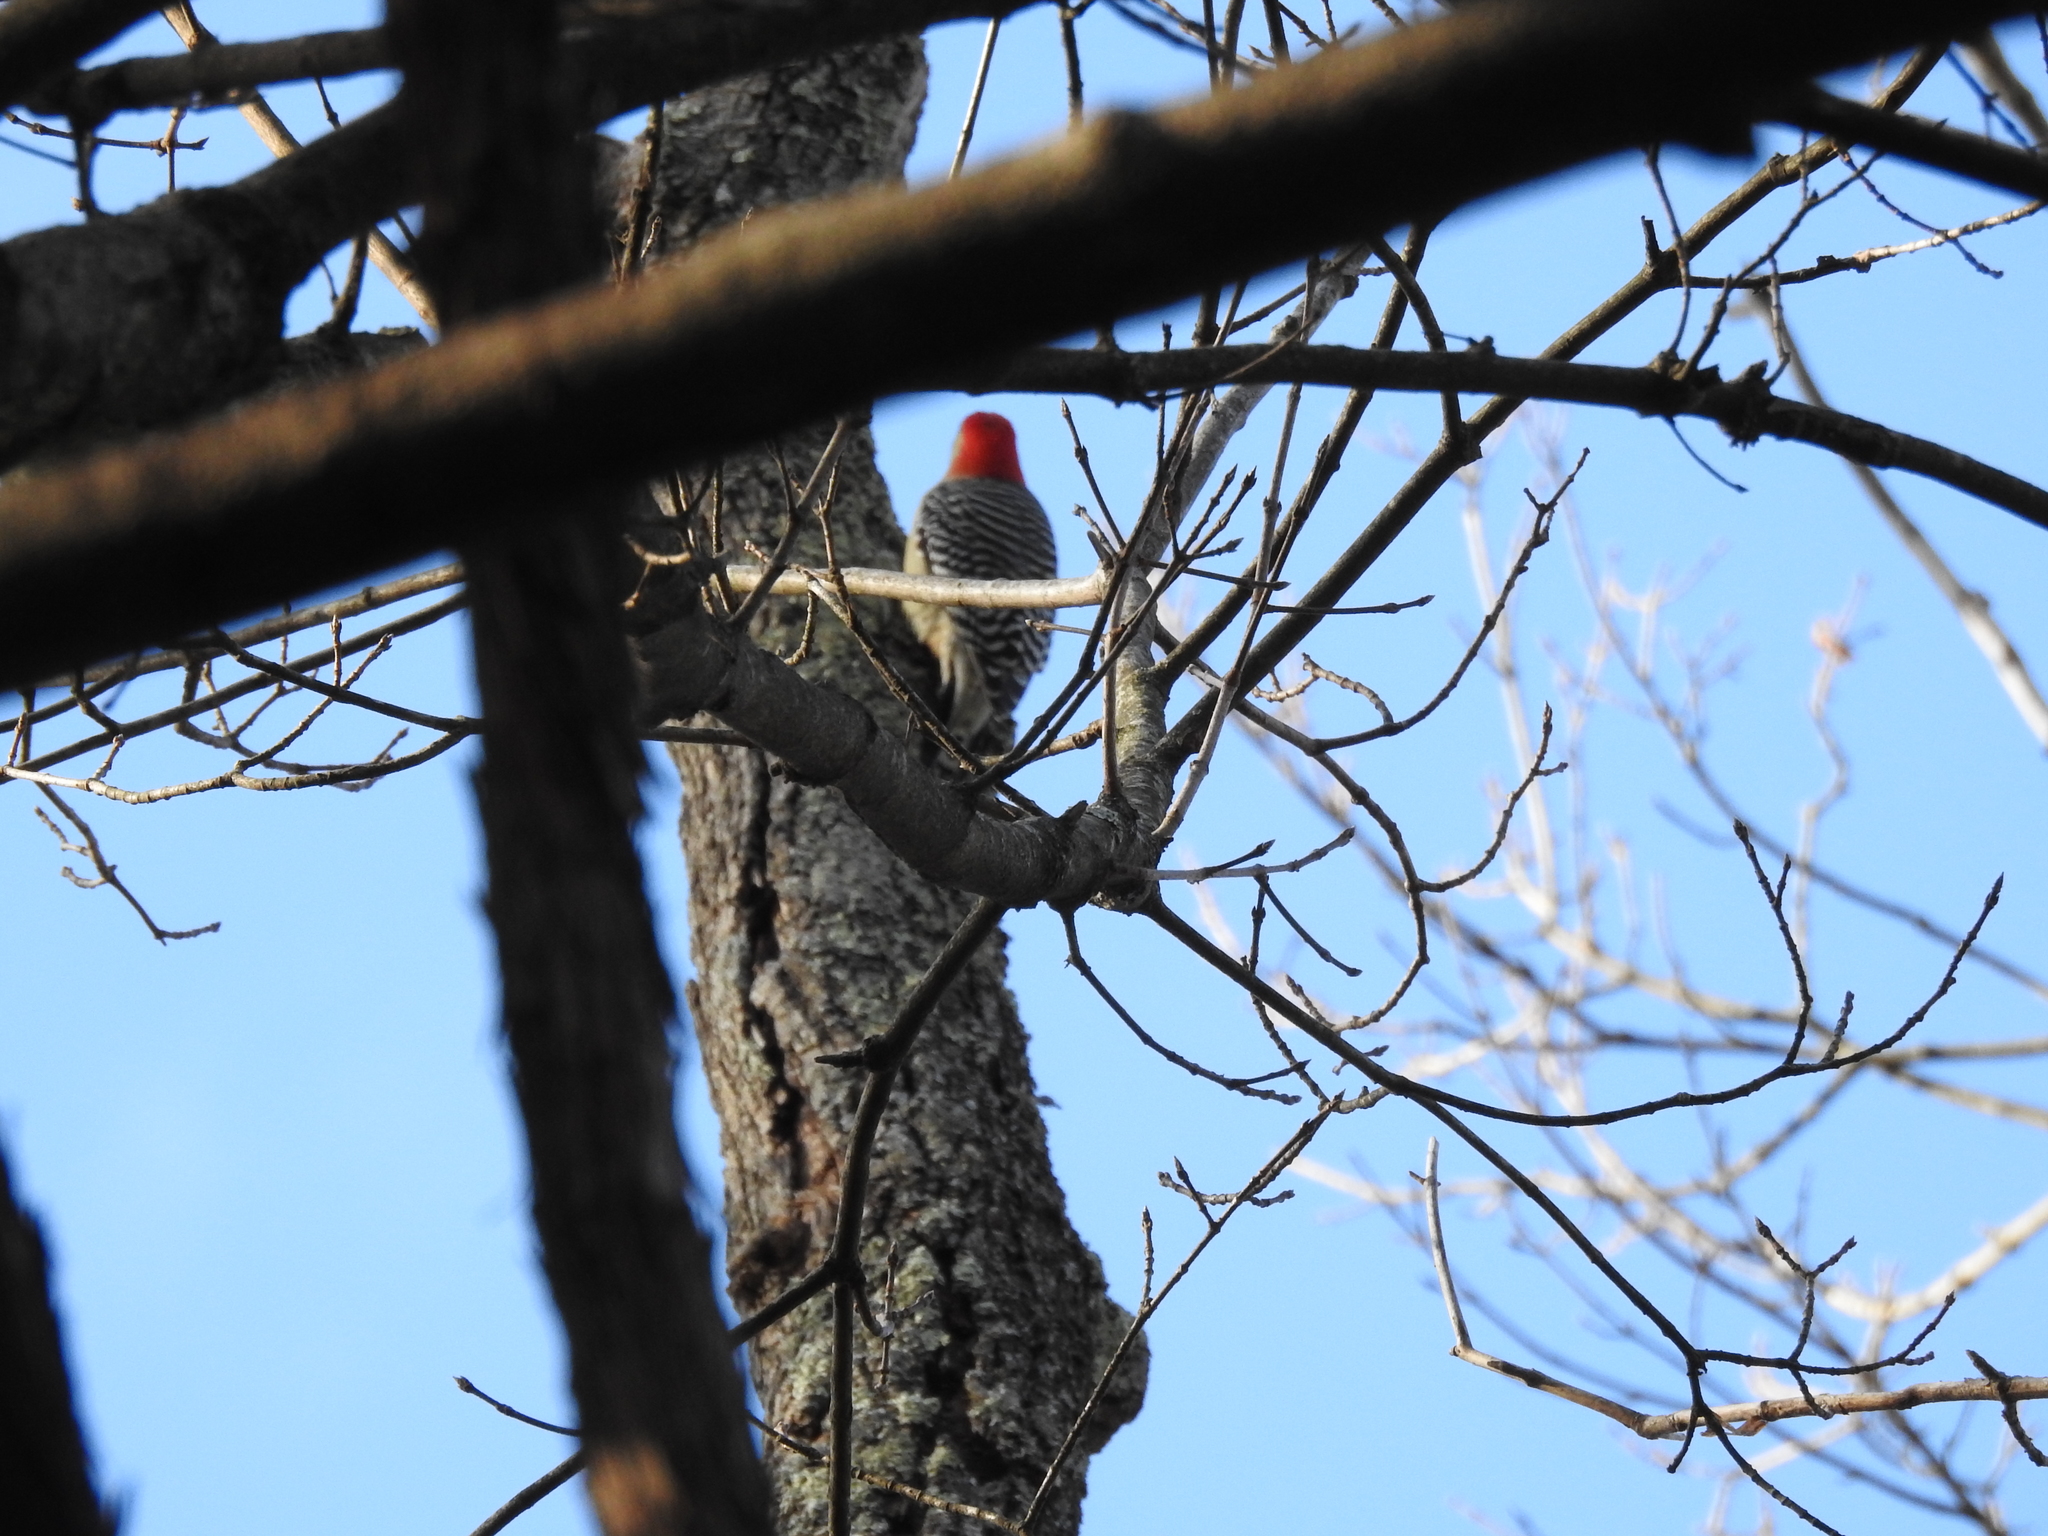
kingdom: Animalia
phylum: Chordata
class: Aves
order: Piciformes
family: Picidae
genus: Melanerpes
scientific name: Melanerpes carolinus
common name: Red-bellied woodpecker
